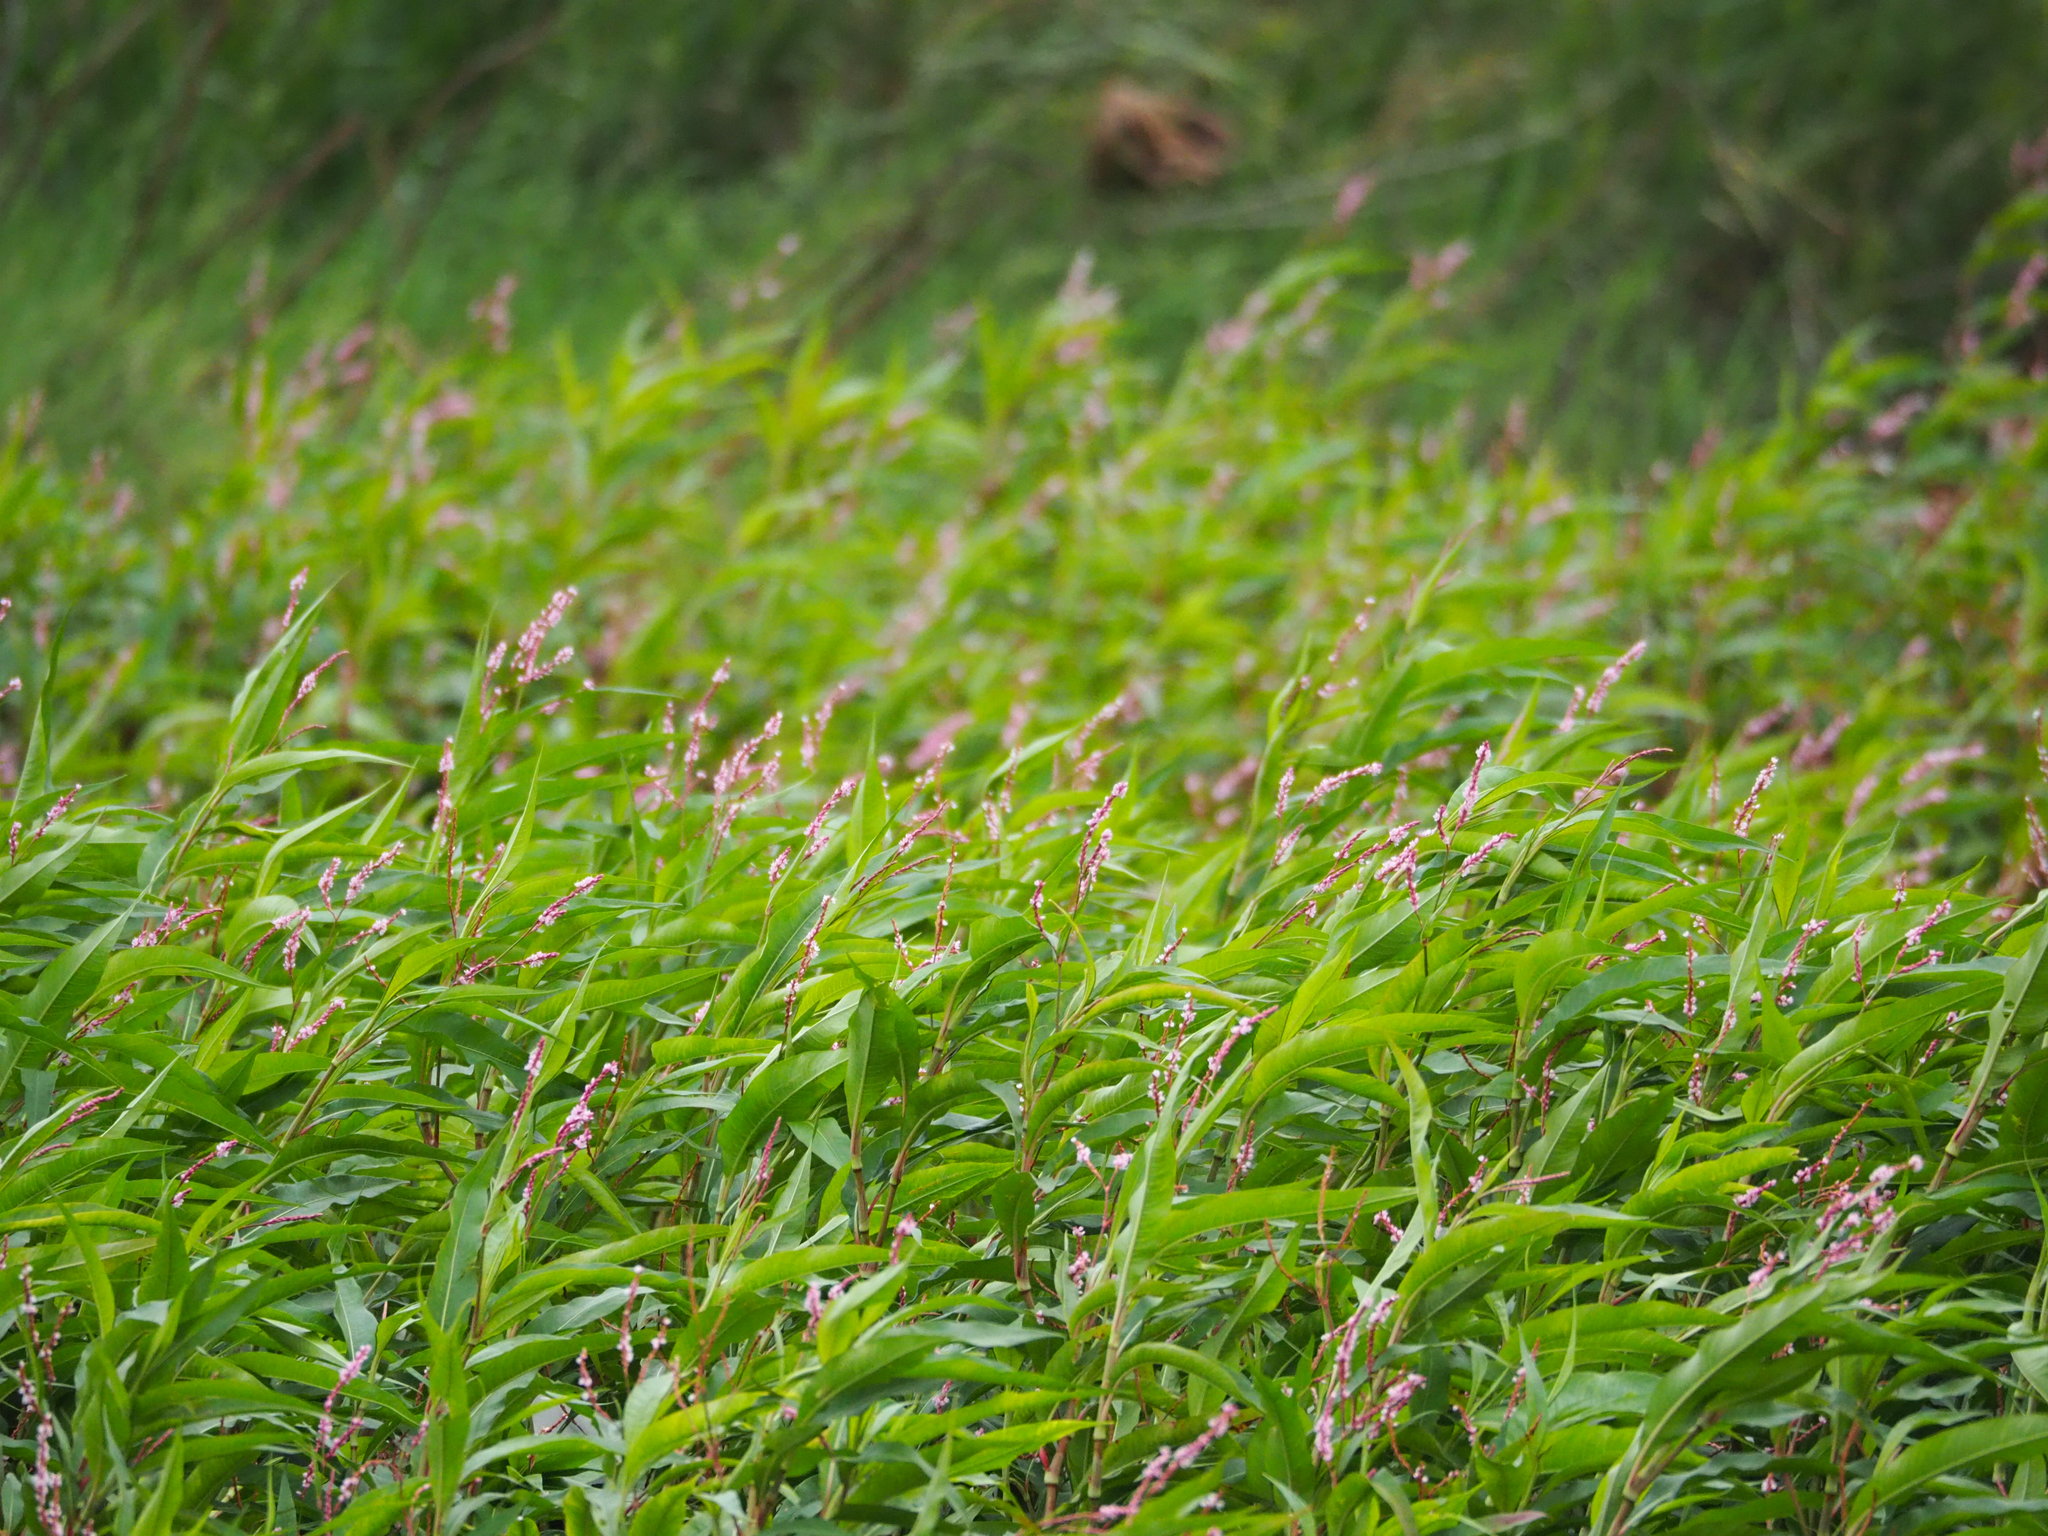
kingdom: Plantae
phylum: Tracheophyta
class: Magnoliopsida
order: Caryophyllales
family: Polygonaceae
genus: Persicaria
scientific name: Persicaria glabra
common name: Denseflower knotweed
